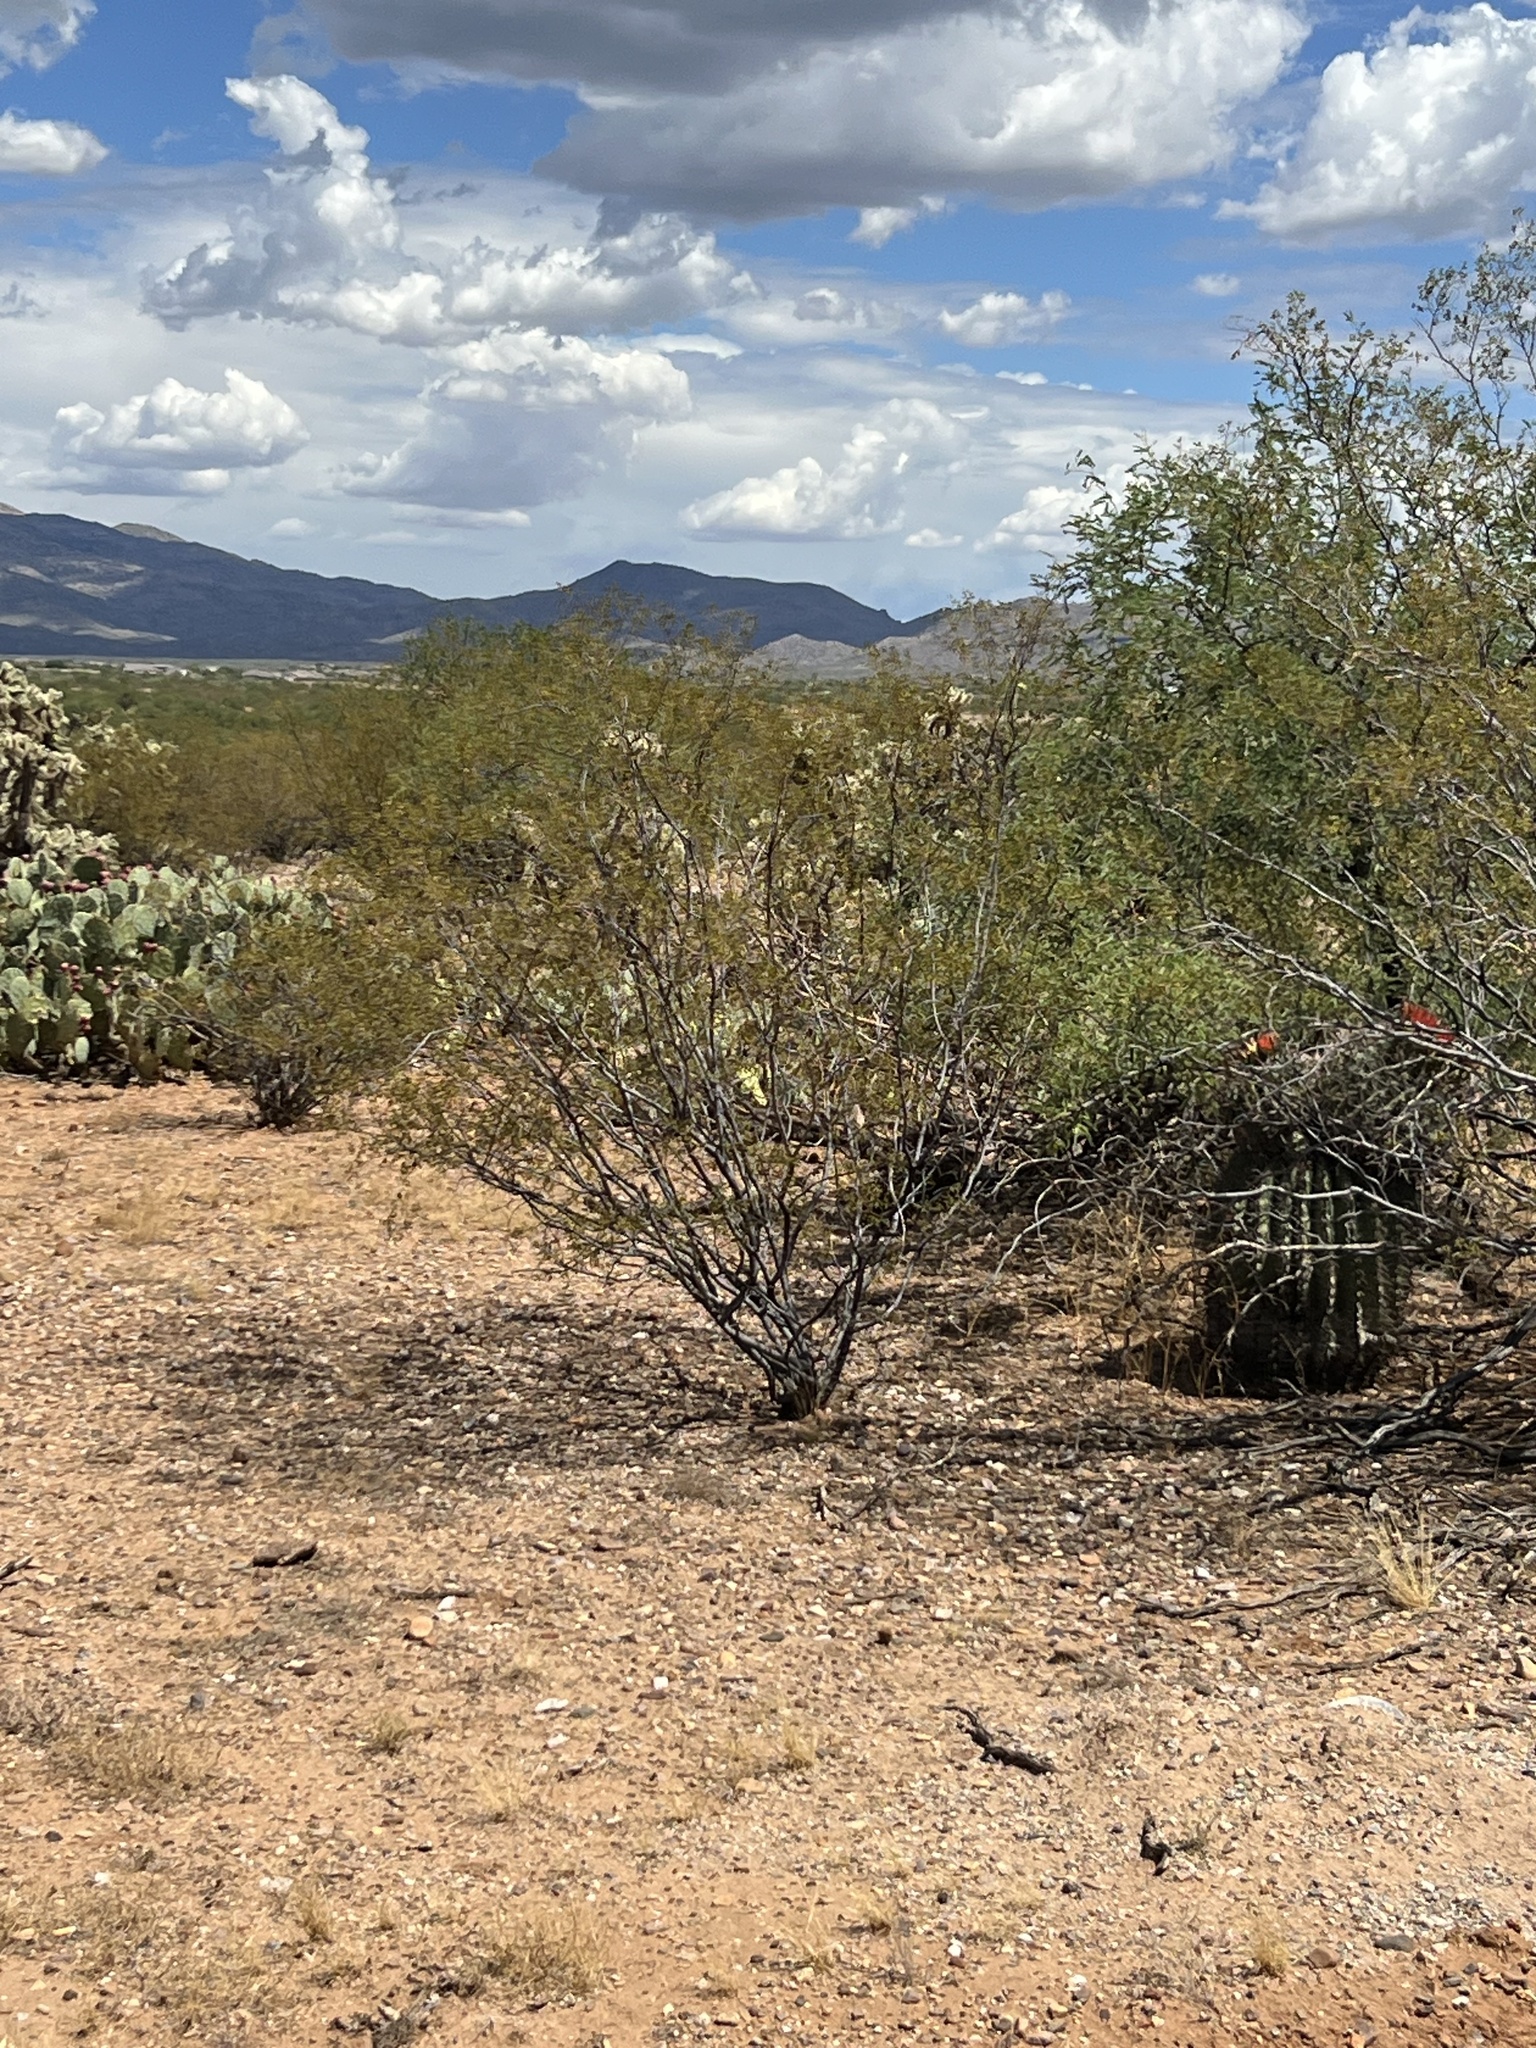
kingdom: Plantae
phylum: Tracheophyta
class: Magnoliopsida
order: Zygophyllales
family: Zygophyllaceae
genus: Larrea
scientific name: Larrea tridentata
